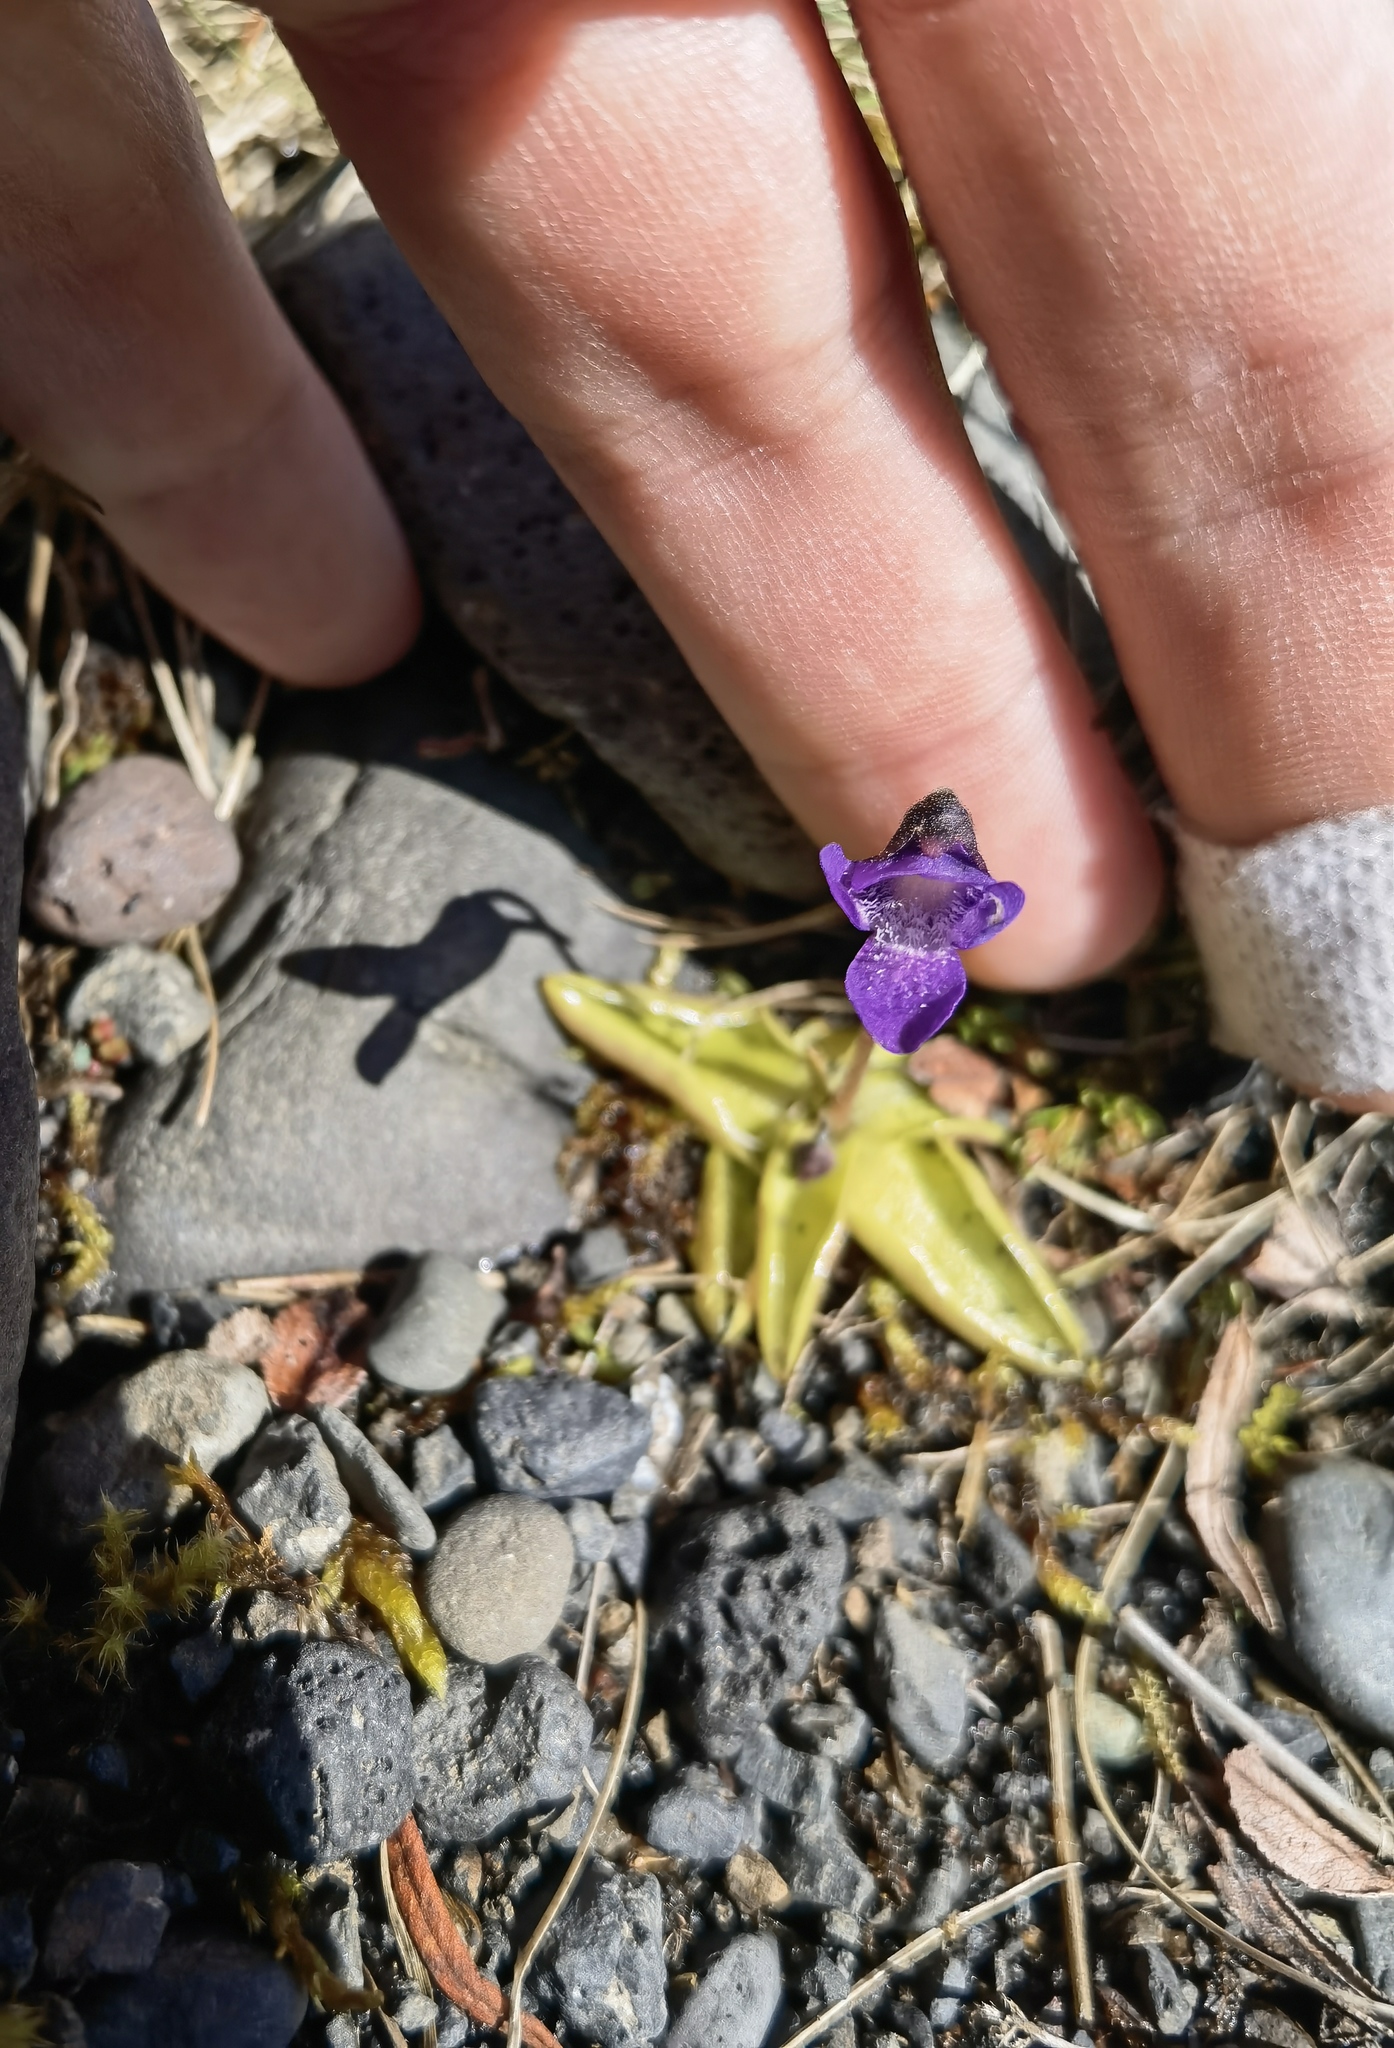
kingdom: Plantae
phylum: Tracheophyta
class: Magnoliopsida
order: Lamiales
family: Lentibulariaceae
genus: Pinguicula
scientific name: Pinguicula vulgaris
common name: Common butterwort
